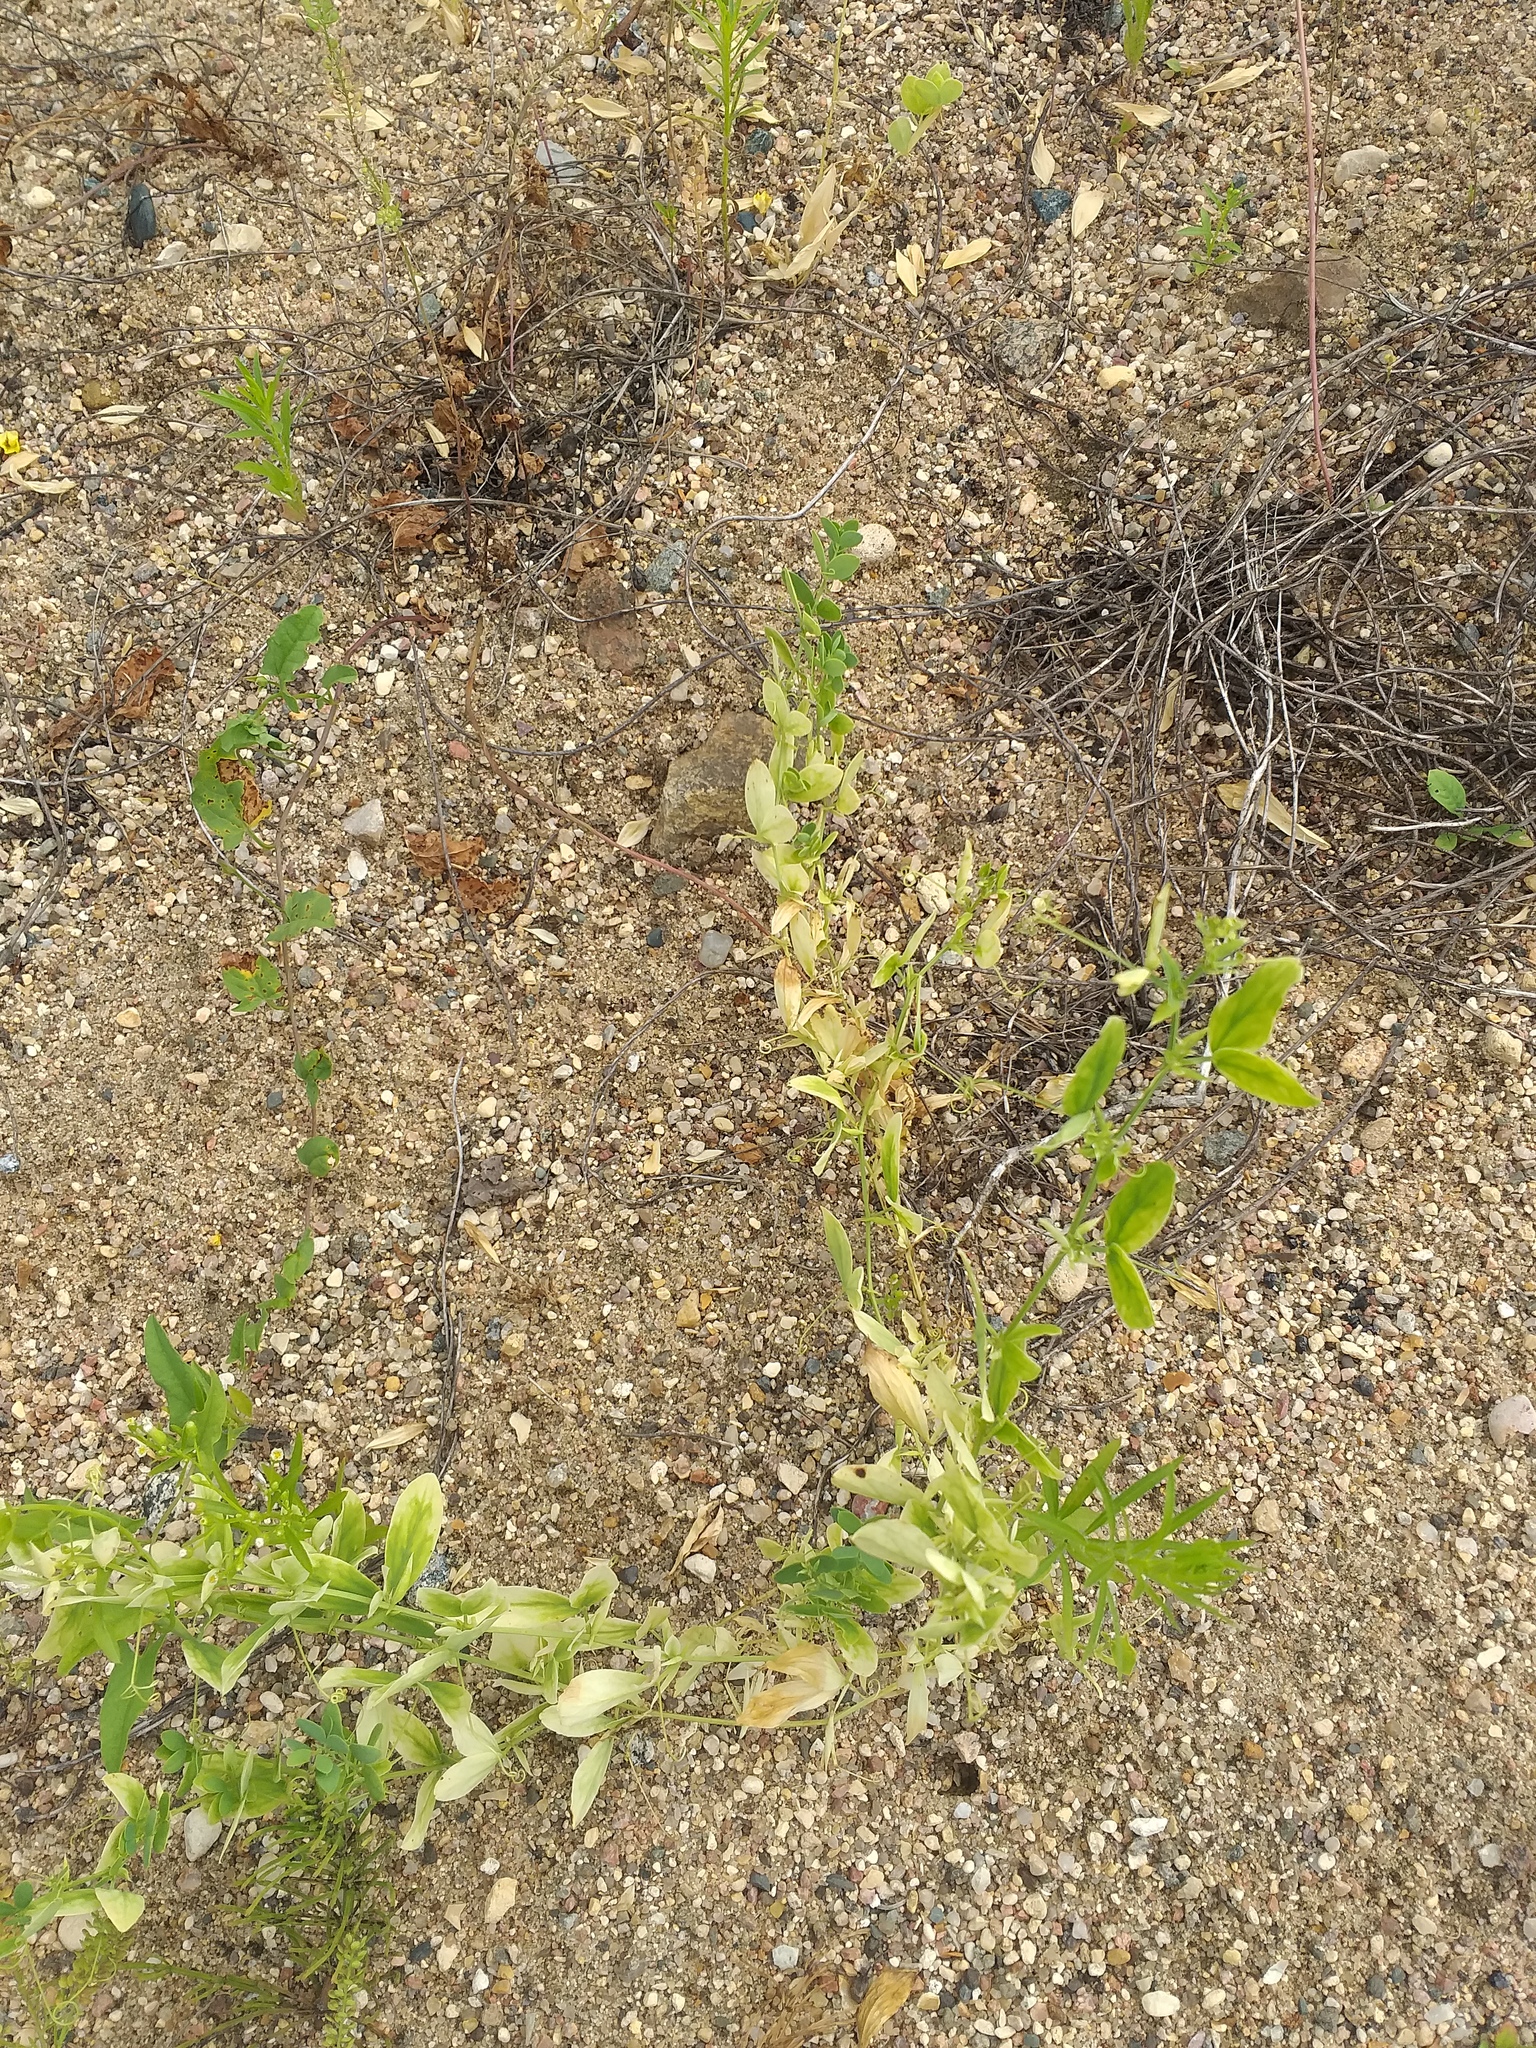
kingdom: Plantae
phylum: Tracheophyta
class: Magnoliopsida
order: Fabales
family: Fabaceae
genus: Lathyrus
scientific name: Lathyrus tuberosus
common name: Tuberous pea
